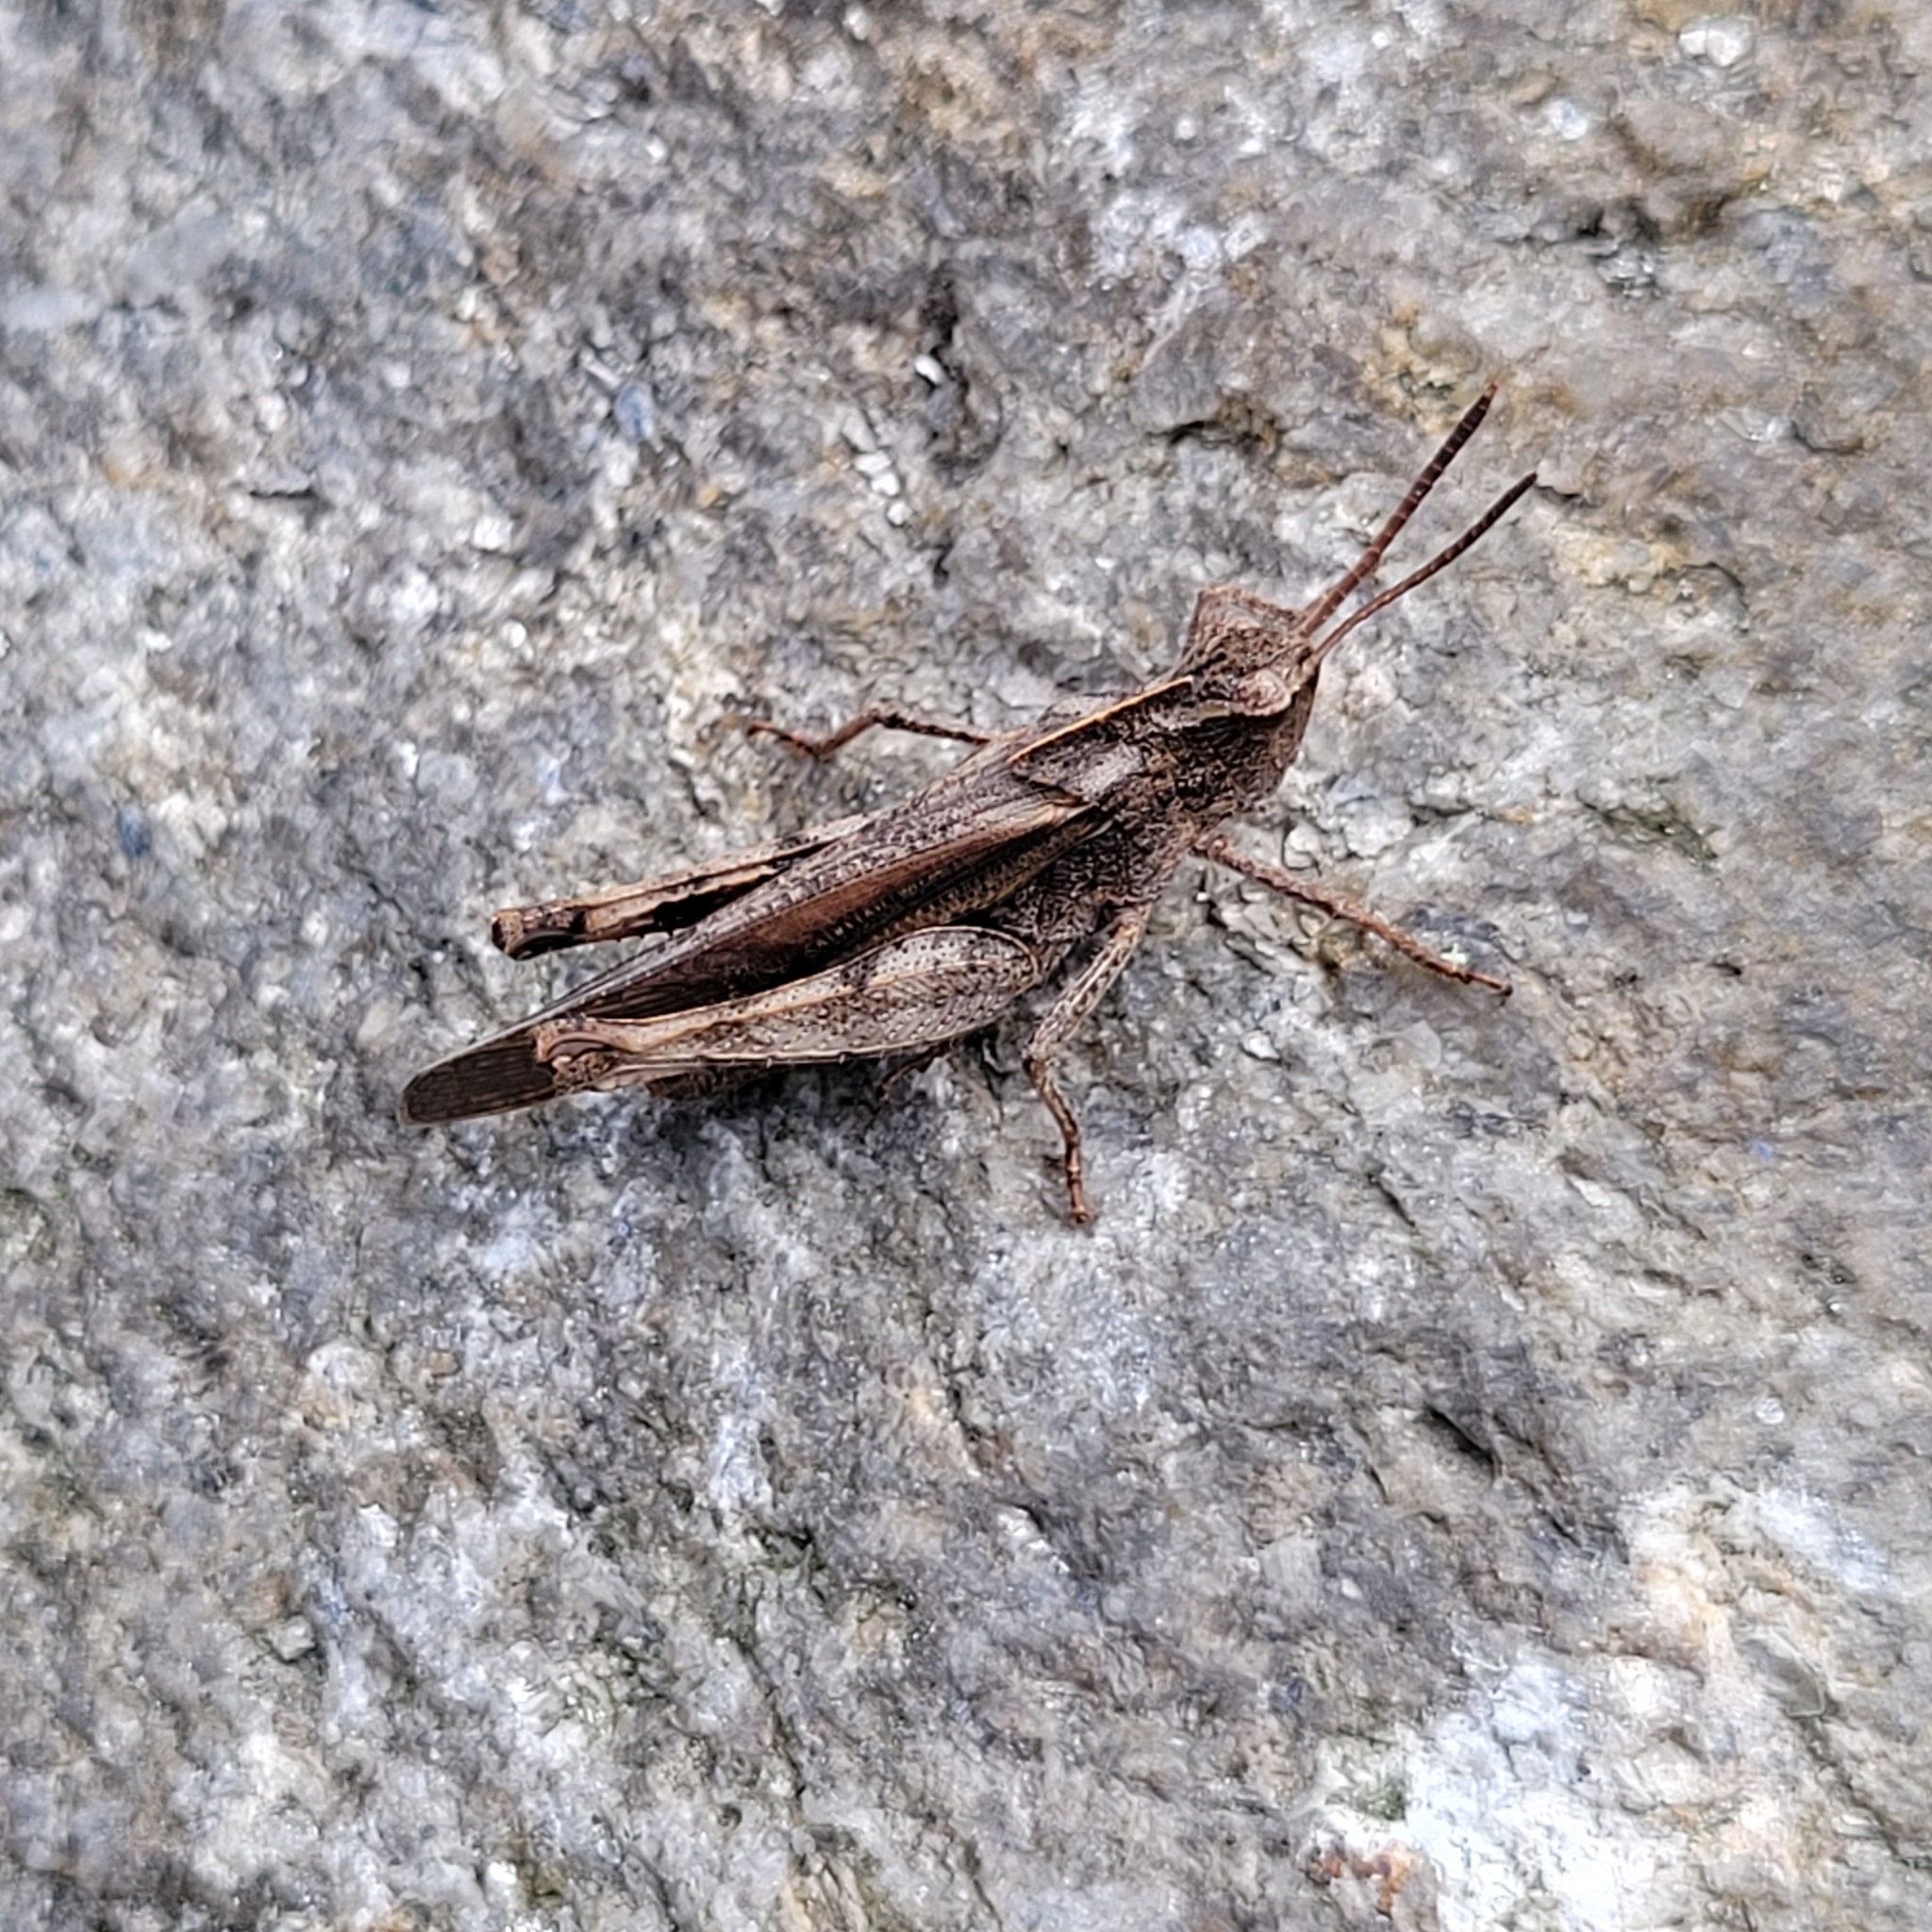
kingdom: Animalia
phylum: Arthropoda
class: Insecta
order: Orthoptera
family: Acrididae
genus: Chortophaga
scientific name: Chortophaga viridifasciata
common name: Green-striped grasshopper
